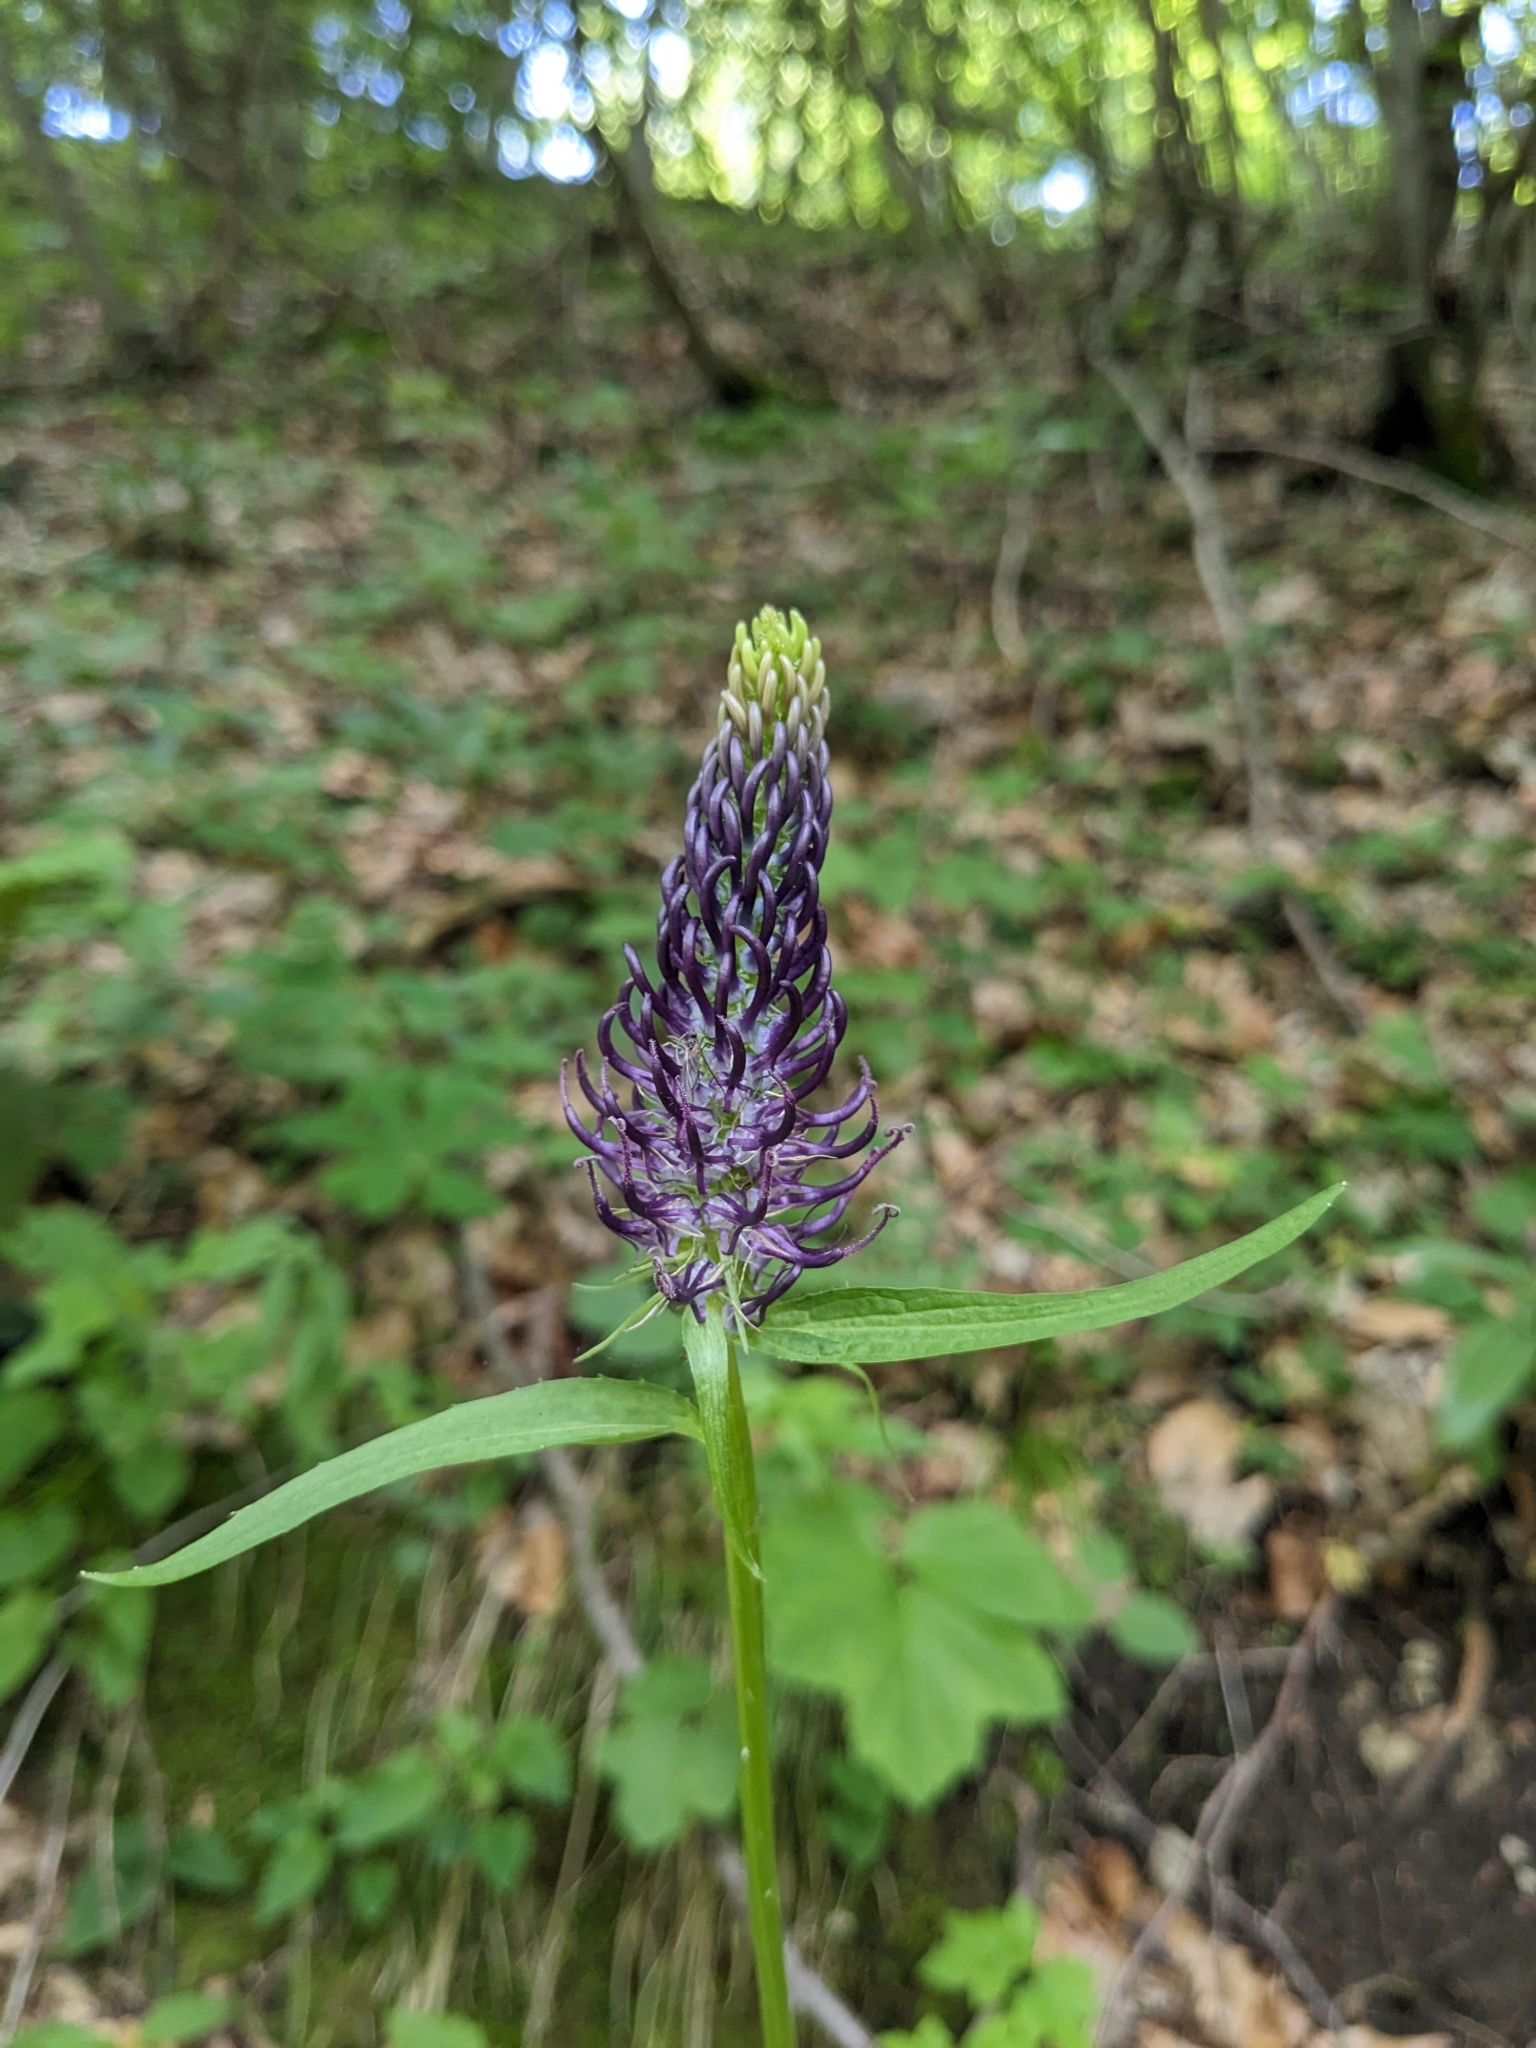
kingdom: Plantae
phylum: Tracheophyta
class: Magnoliopsida
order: Asterales
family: Campanulaceae
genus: Phyteuma
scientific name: Phyteuma ovatum
